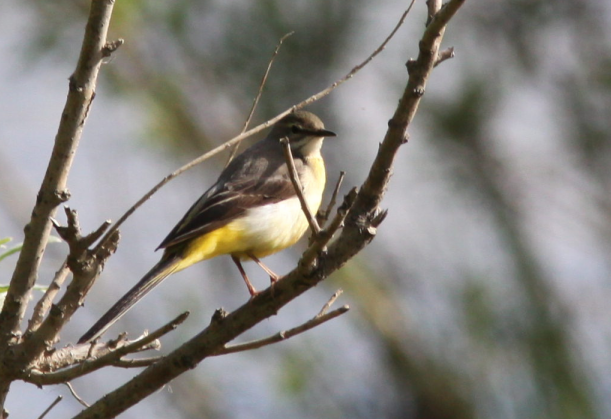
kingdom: Animalia
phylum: Chordata
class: Aves
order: Passeriformes
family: Motacillidae
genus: Motacilla
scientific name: Motacilla cinerea
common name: Grey wagtail
